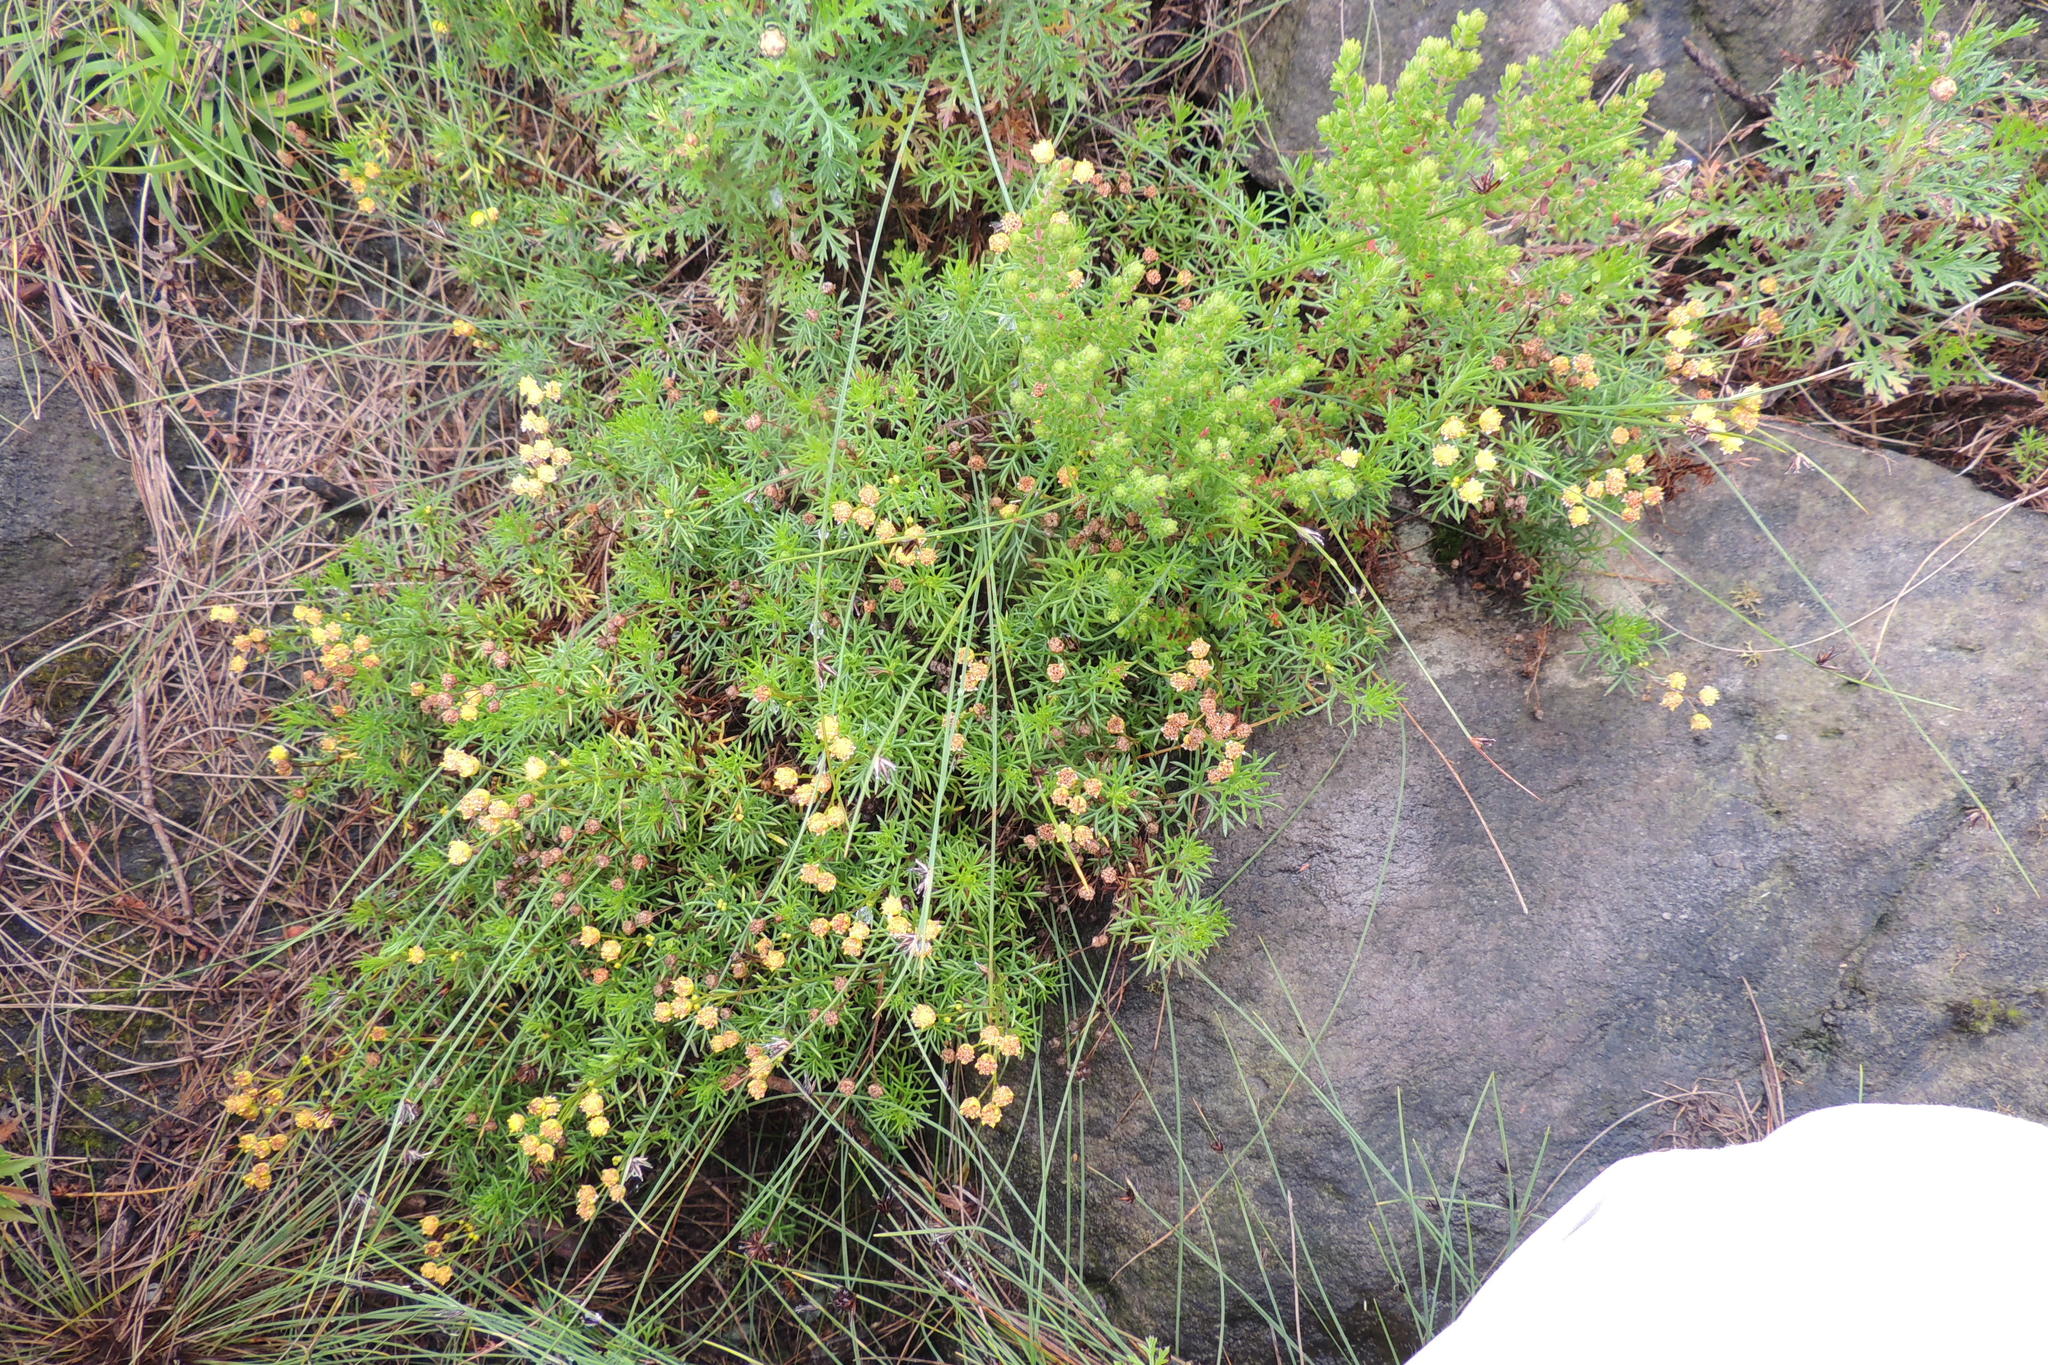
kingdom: Plantae
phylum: Tracheophyta
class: Magnoliopsida
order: Asterales
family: Asteraceae
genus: Hippia
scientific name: Hippia hutchinsonii
